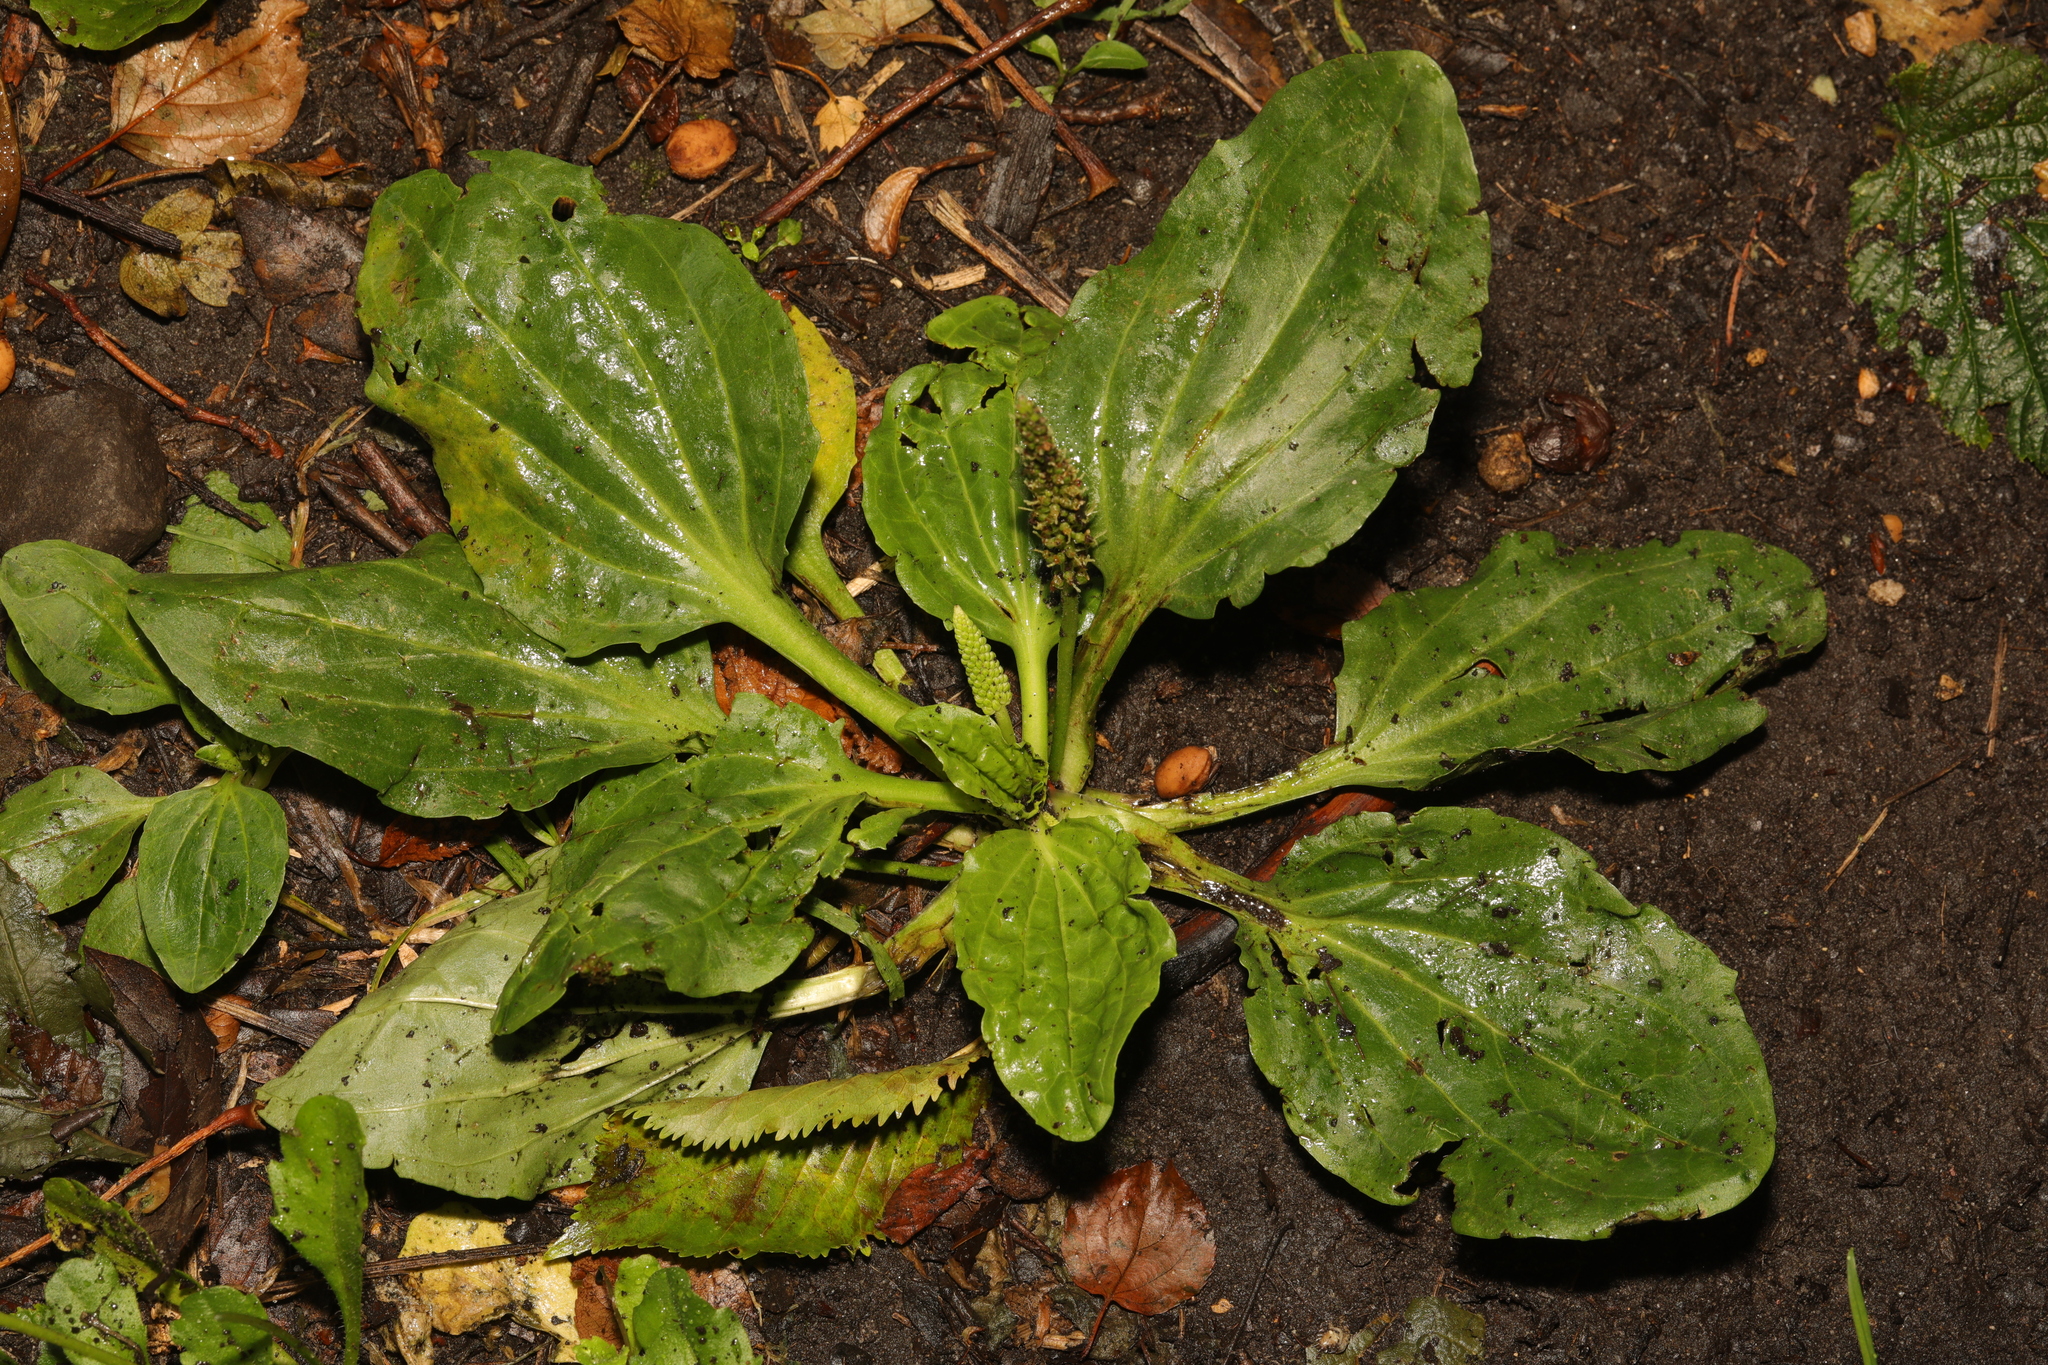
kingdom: Plantae
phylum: Tracheophyta
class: Magnoliopsida
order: Lamiales
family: Plantaginaceae
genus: Plantago
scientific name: Plantago major
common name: Common plantain
